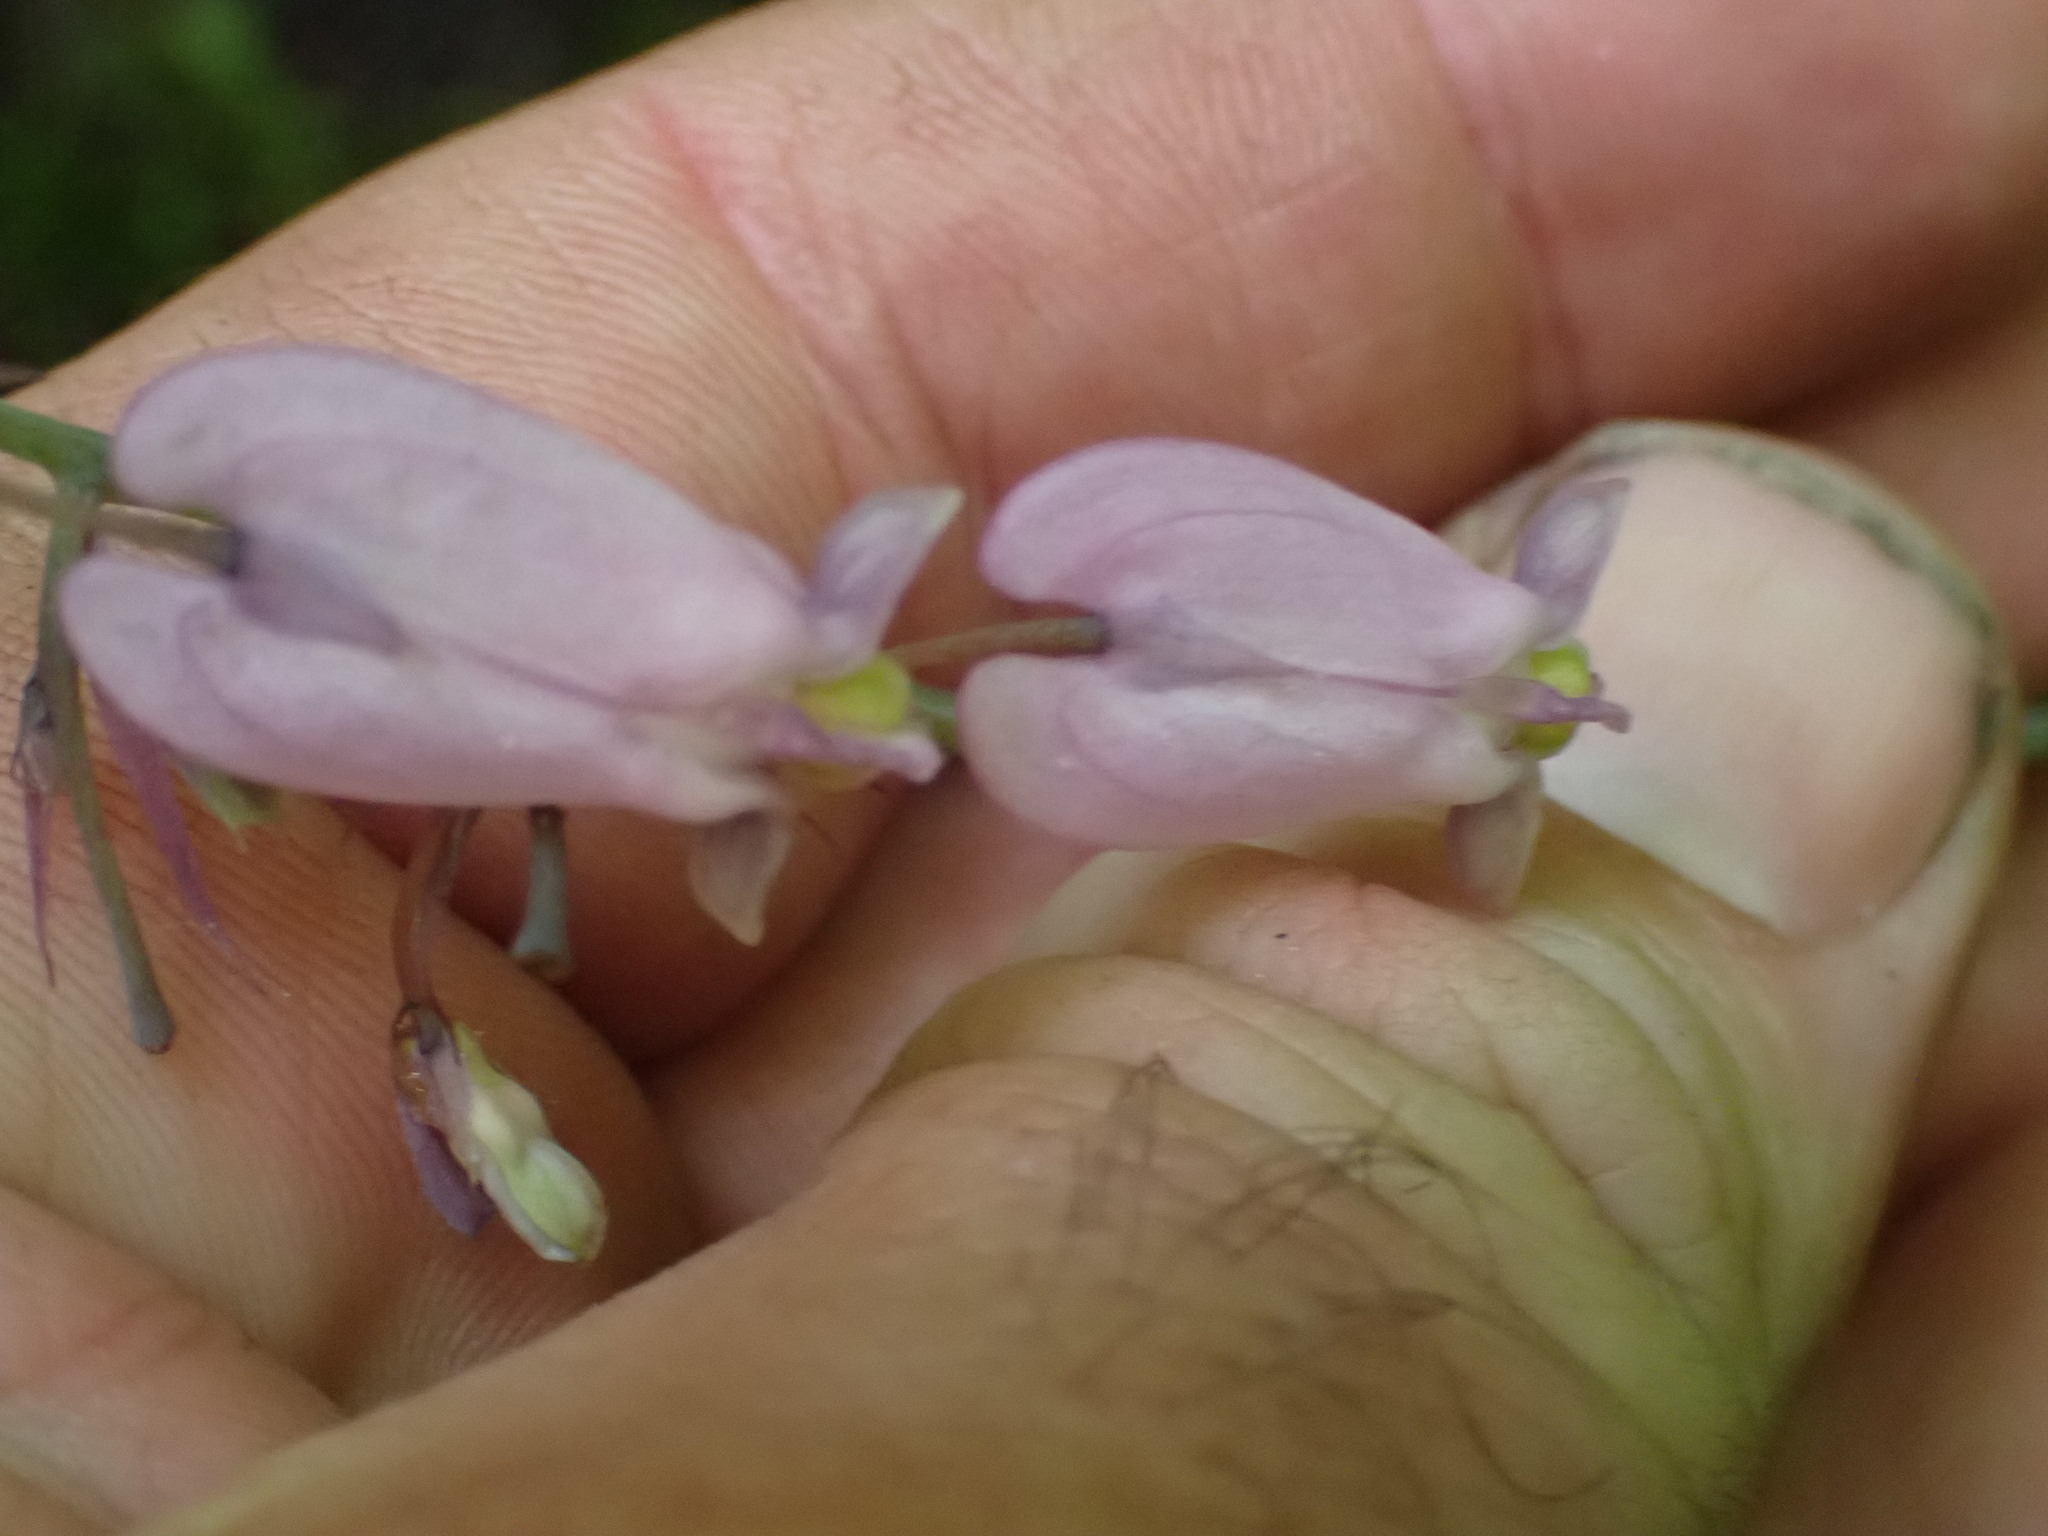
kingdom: Plantae
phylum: Tracheophyta
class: Magnoliopsida
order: Ranunculales
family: Papaveraceae
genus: Dicentra
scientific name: Dicentra formosa
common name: Bleeding-heart
